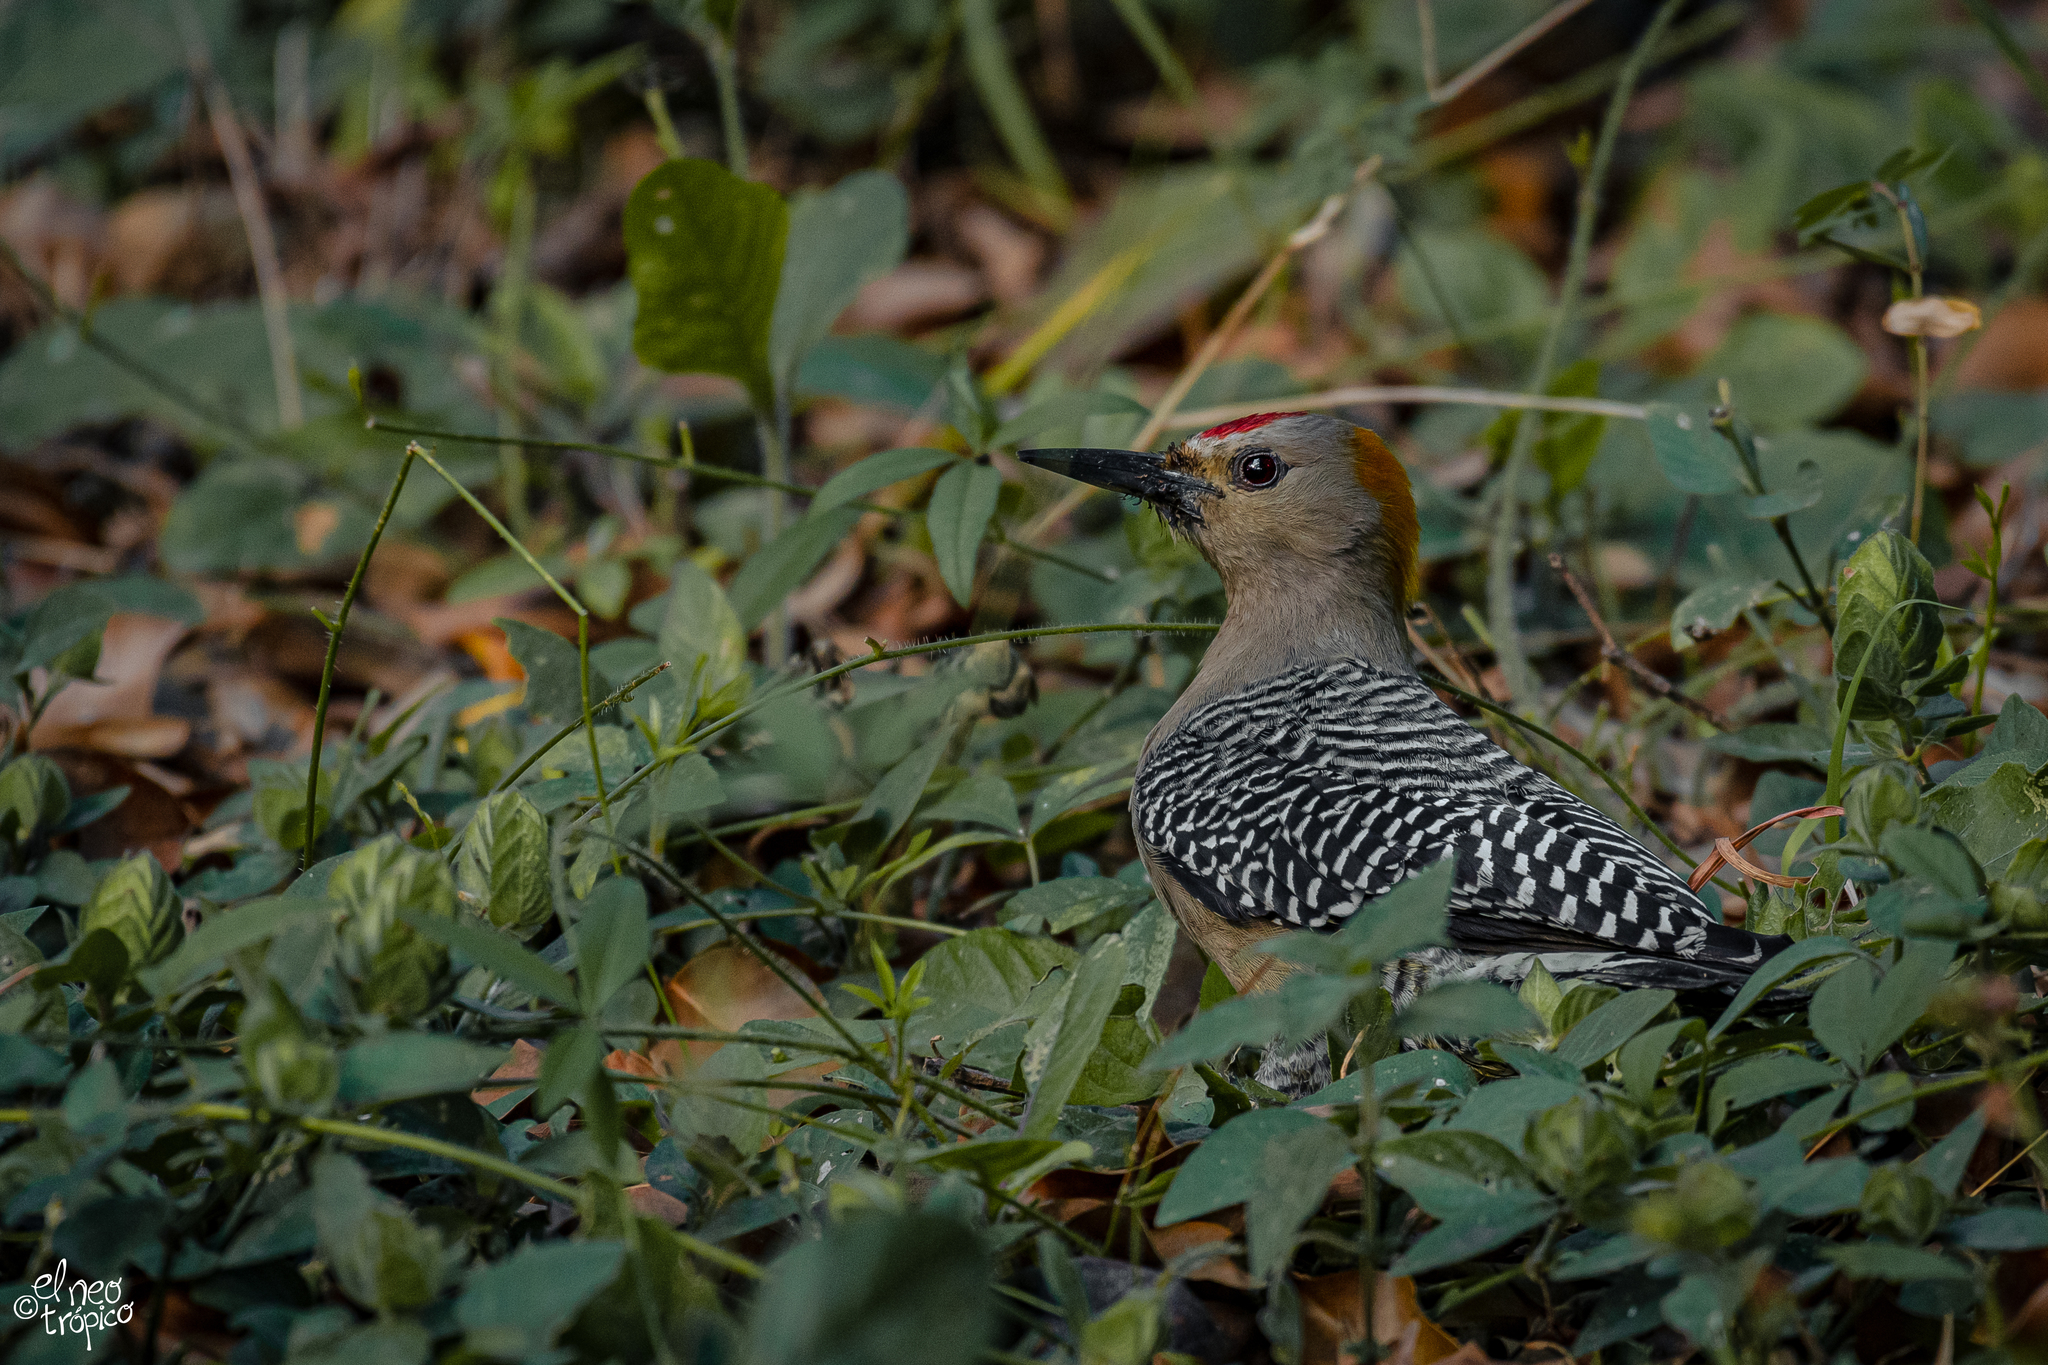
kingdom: Animalia
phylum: Chordata
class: Aves
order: Piciformes
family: Picidae
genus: Melanerpes
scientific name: Melanerpes aurifrons
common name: Golden-fronted woodpecker
